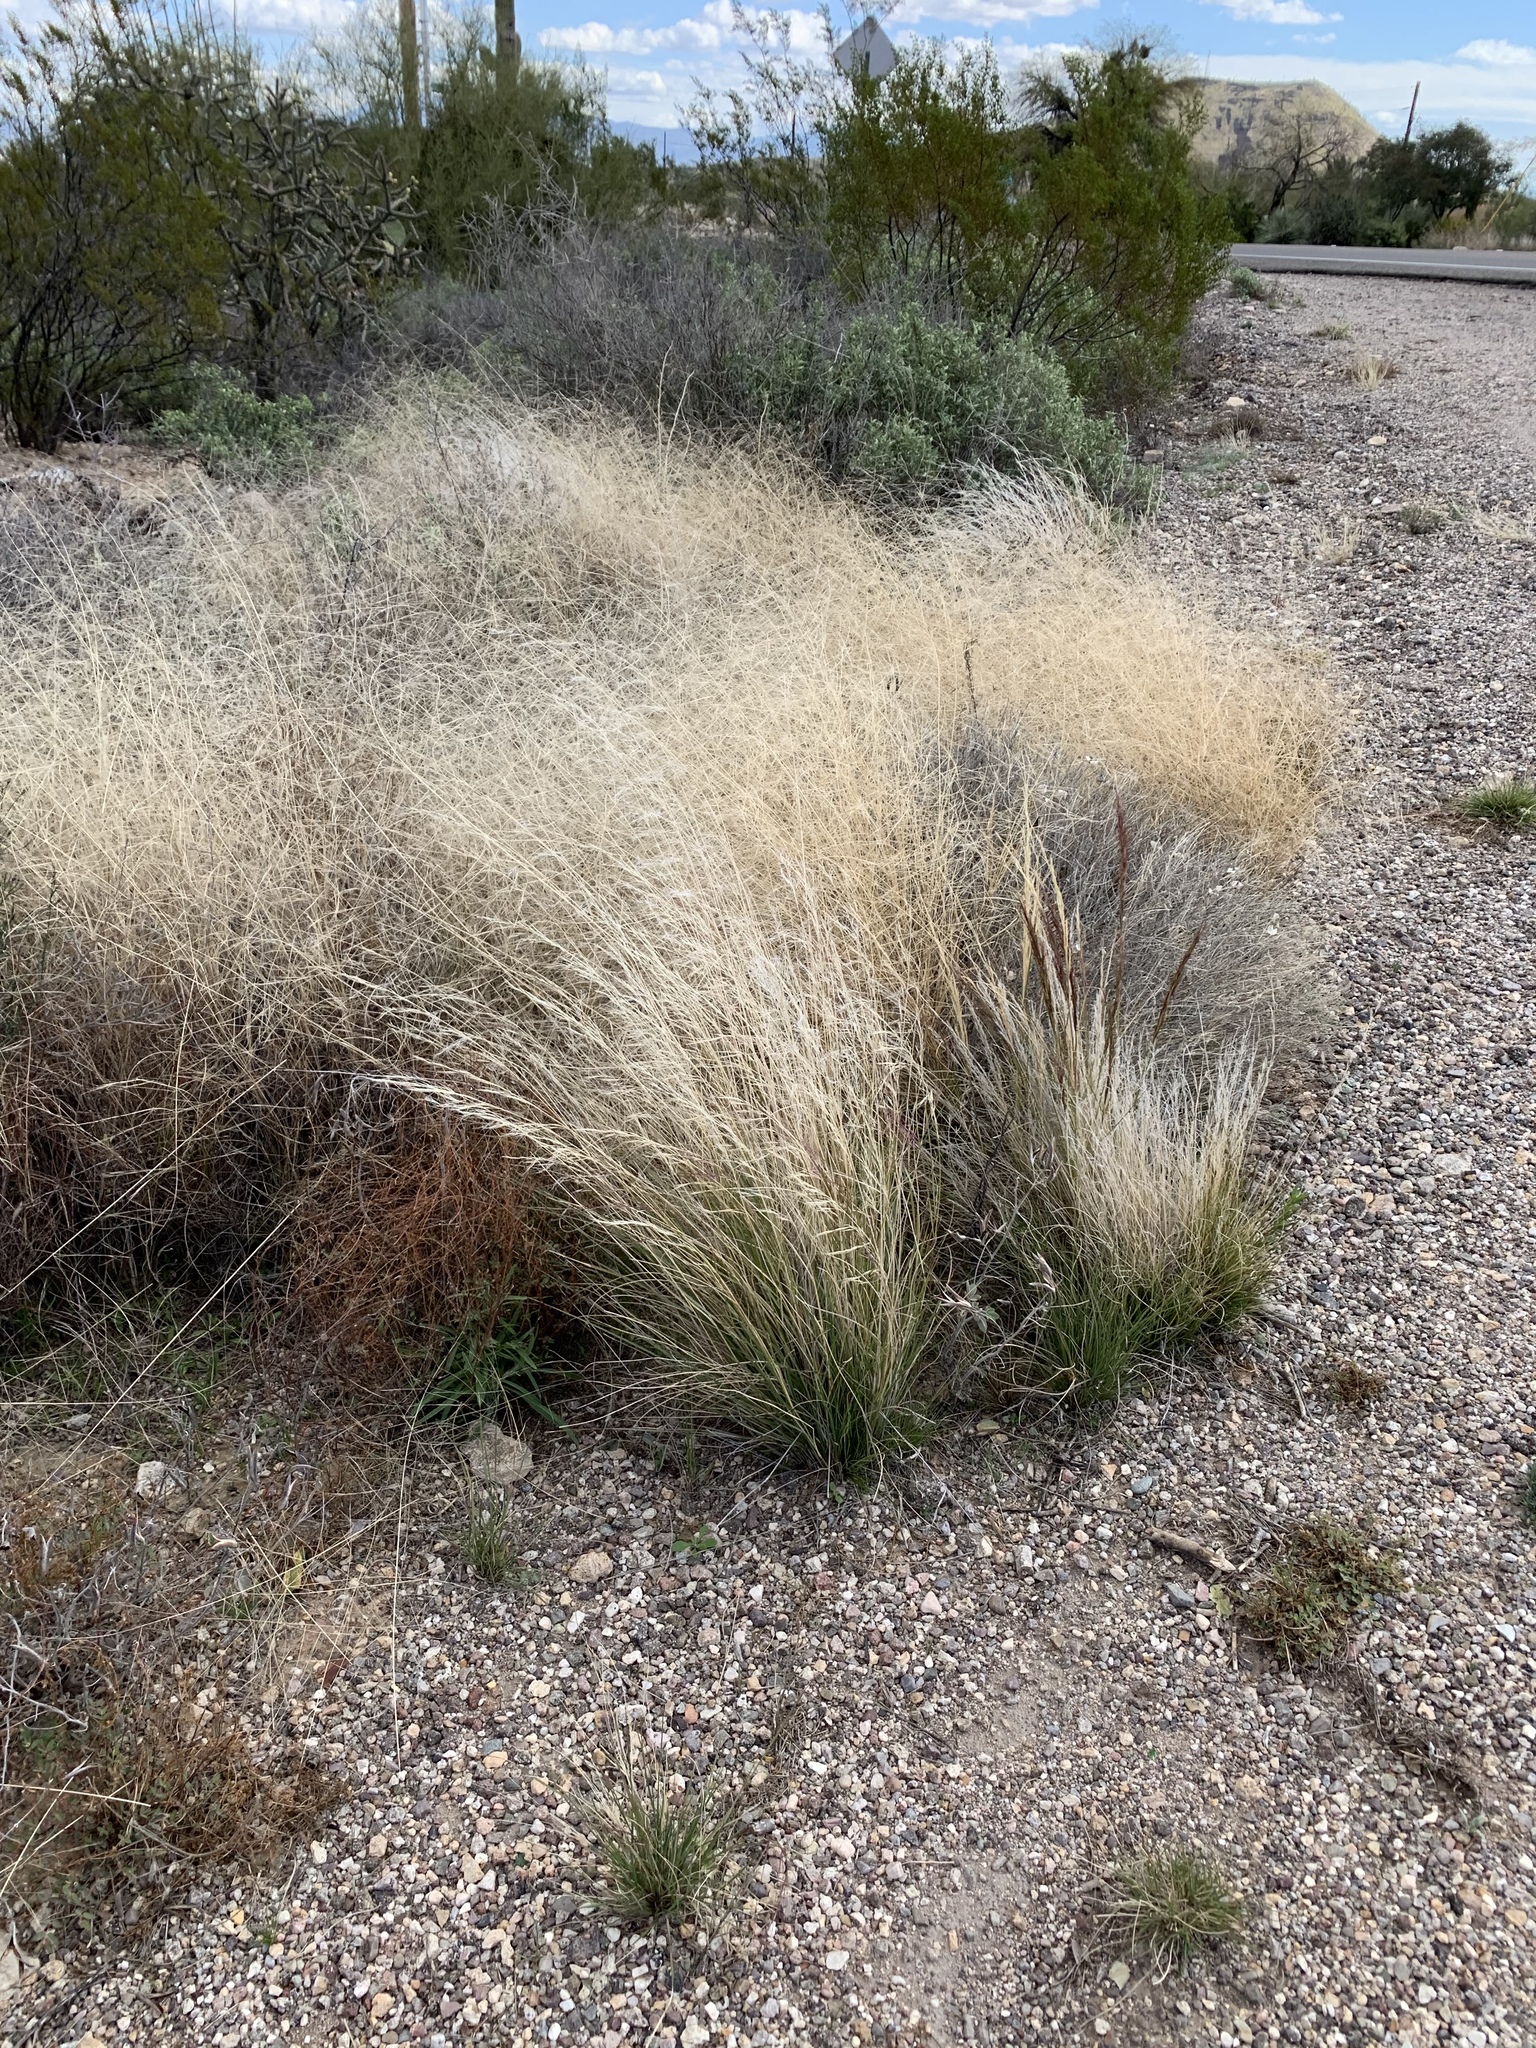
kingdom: Plantae
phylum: Tracheophyta
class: Liliopsida
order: Poales
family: Poaceae
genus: Aristida
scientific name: Aristida purpurea
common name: Purple threeawn
